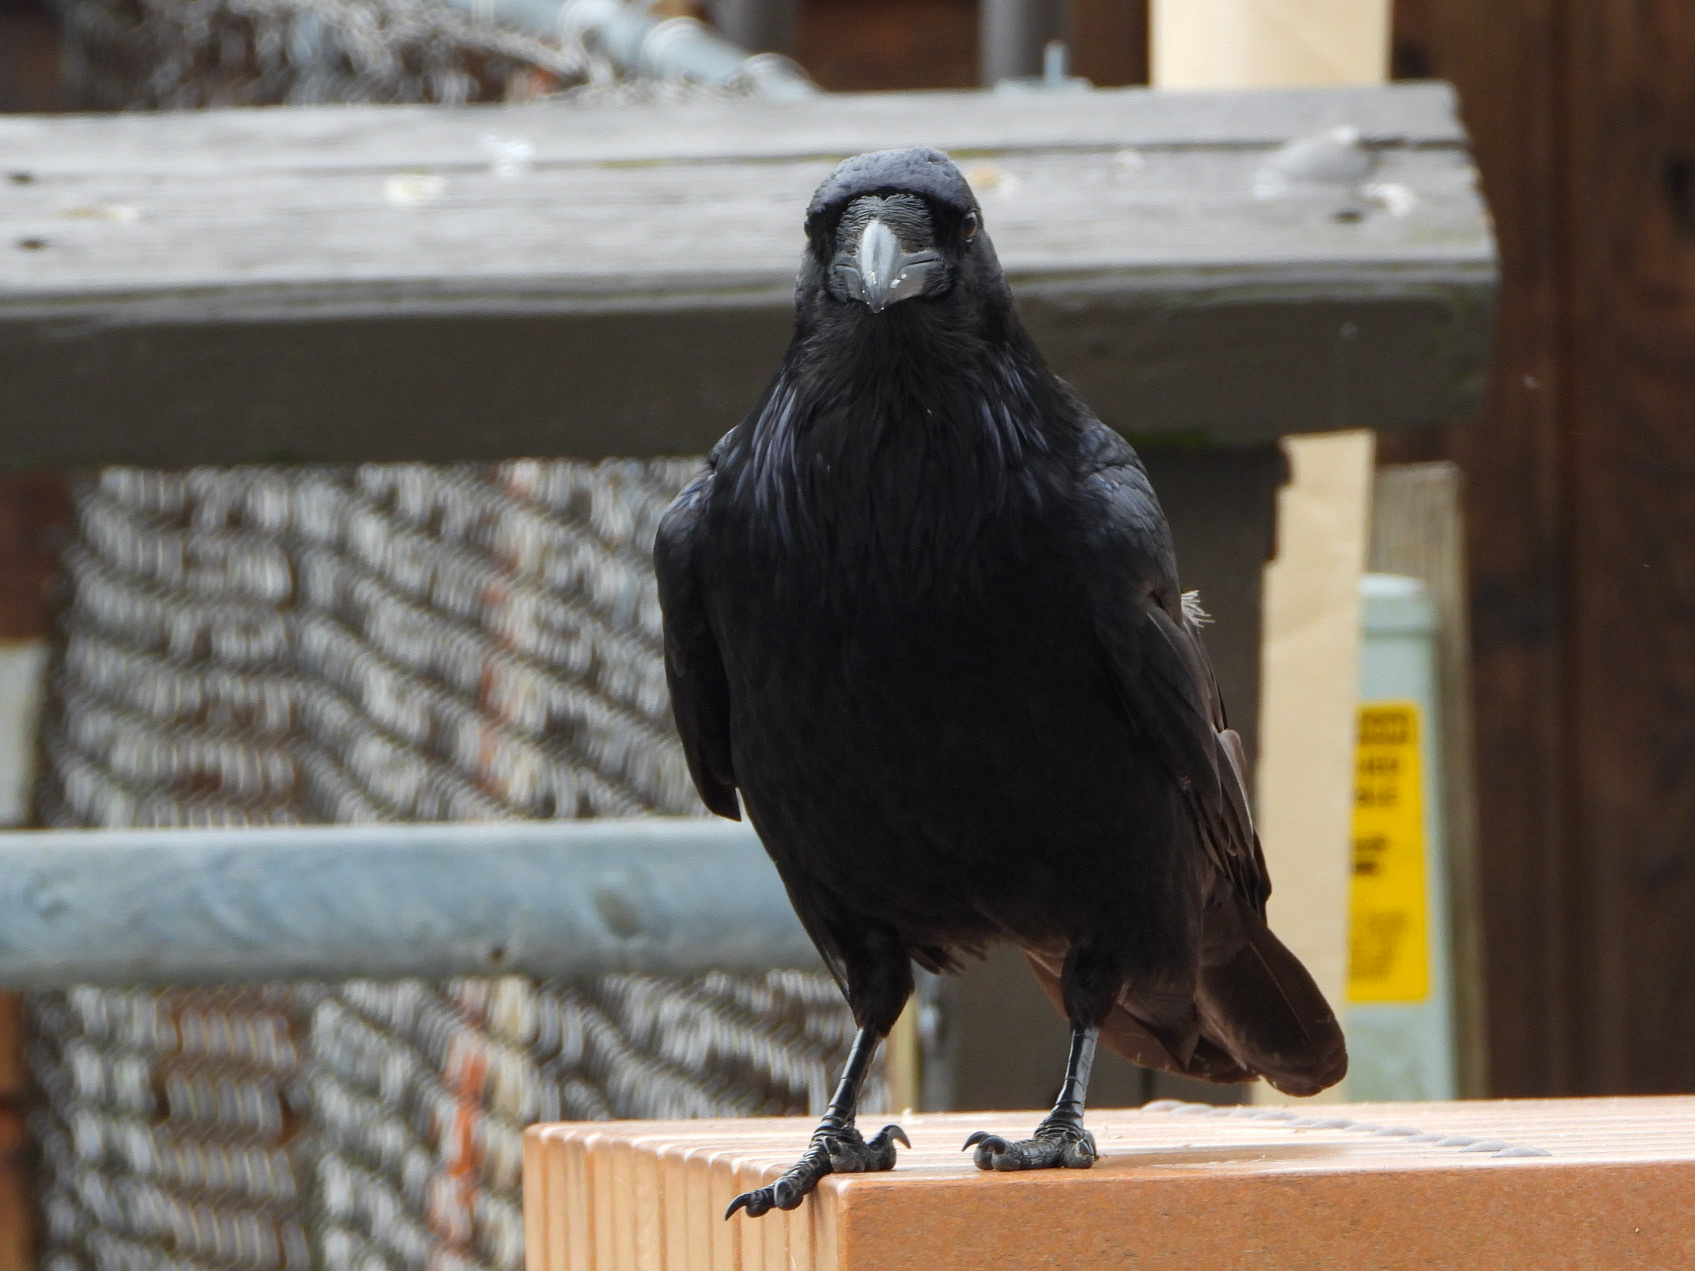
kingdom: Animalia
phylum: Chordata
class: Aves
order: Passeriformes
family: Corvidae
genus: Corvus
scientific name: Corvus corax
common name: Common raven
